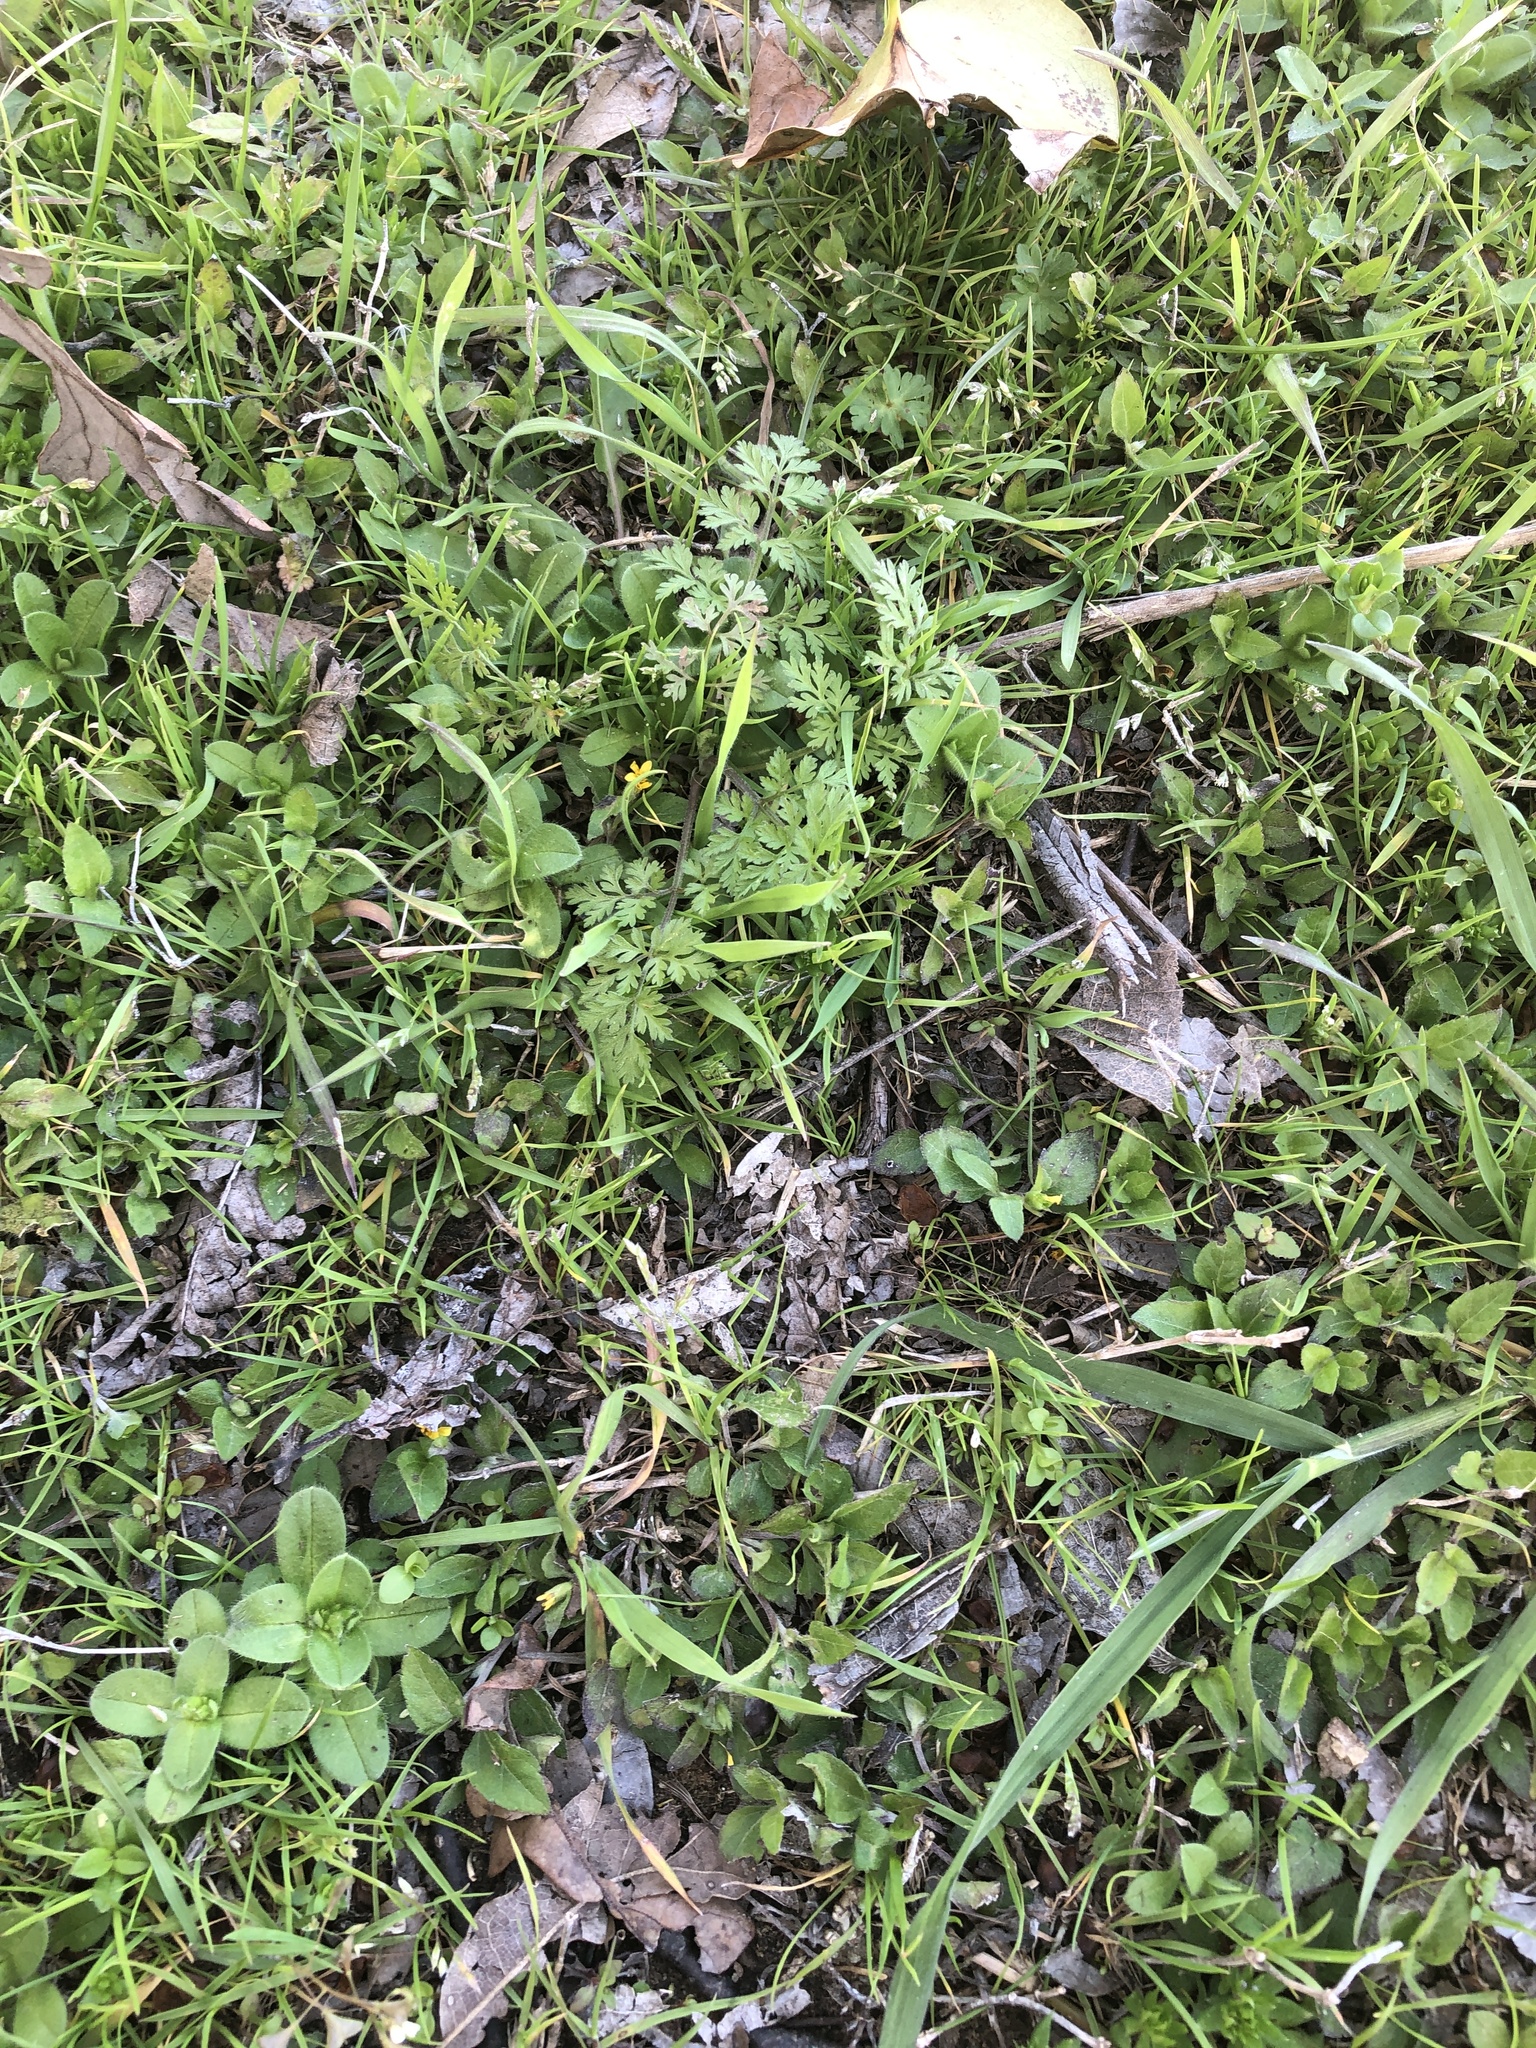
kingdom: Plantae
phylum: Tracheophyta
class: Magnoliopsida
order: Asterales
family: Asteraceae
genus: Calyptocarpus
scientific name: Calyptocarpus vialis
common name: Straggler daisy
